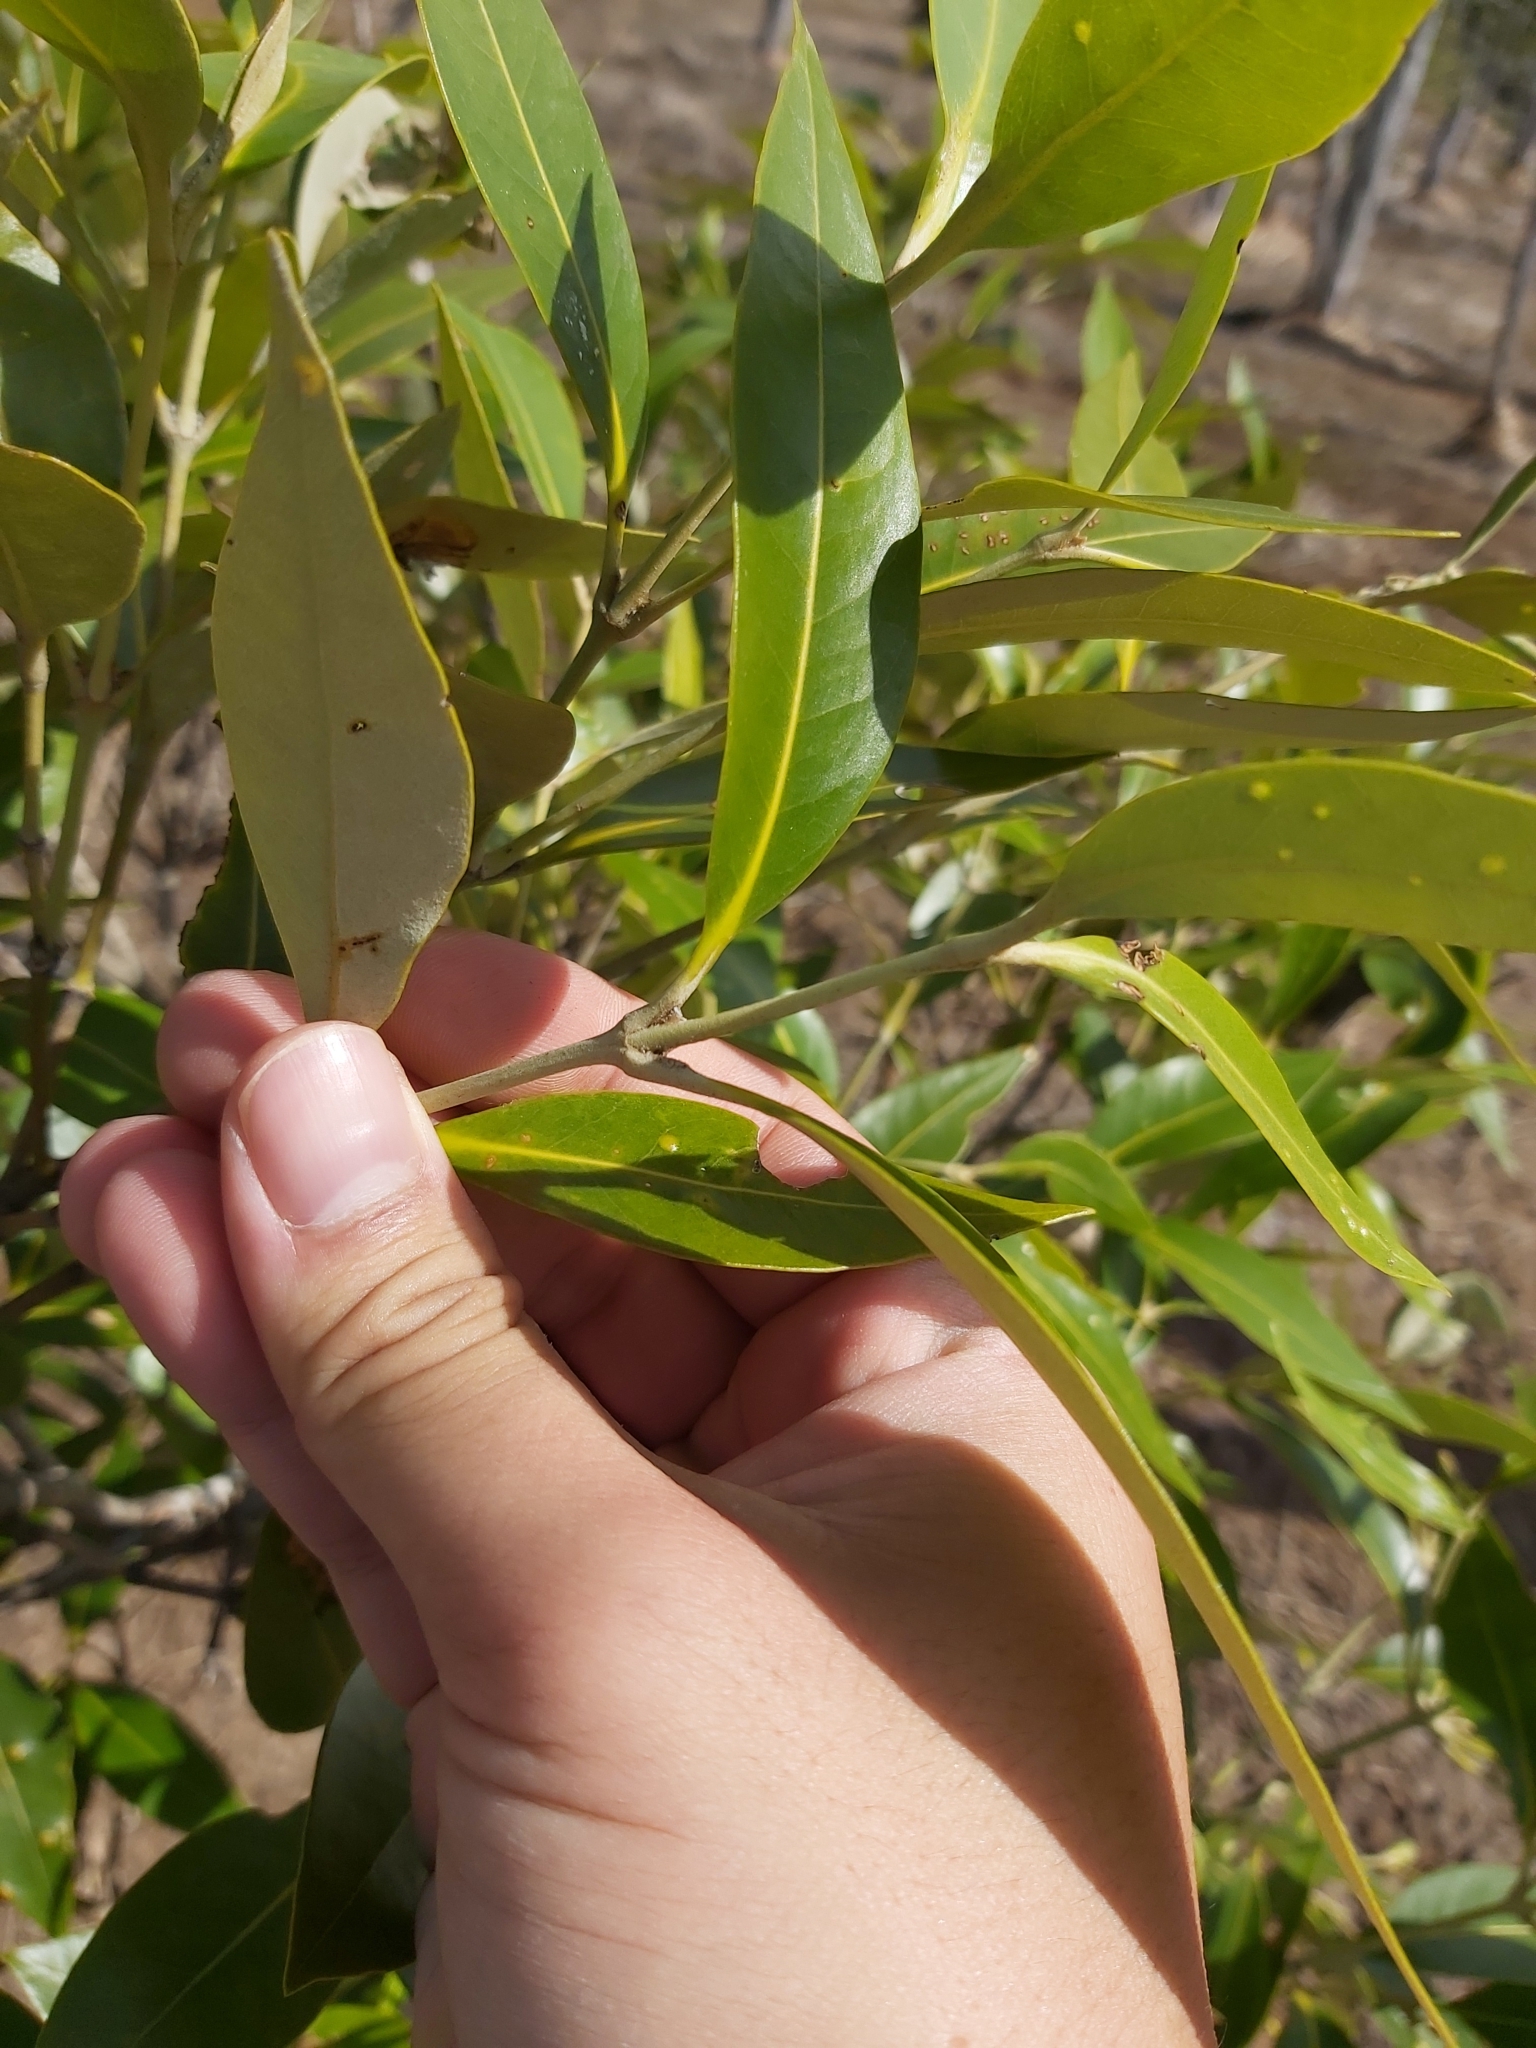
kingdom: Plantae
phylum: Tracheophyta
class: Magnoliopsida
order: Lamiales
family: Acanthaceae
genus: Avicennia
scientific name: Avicennia marina
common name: Gray mangrove
